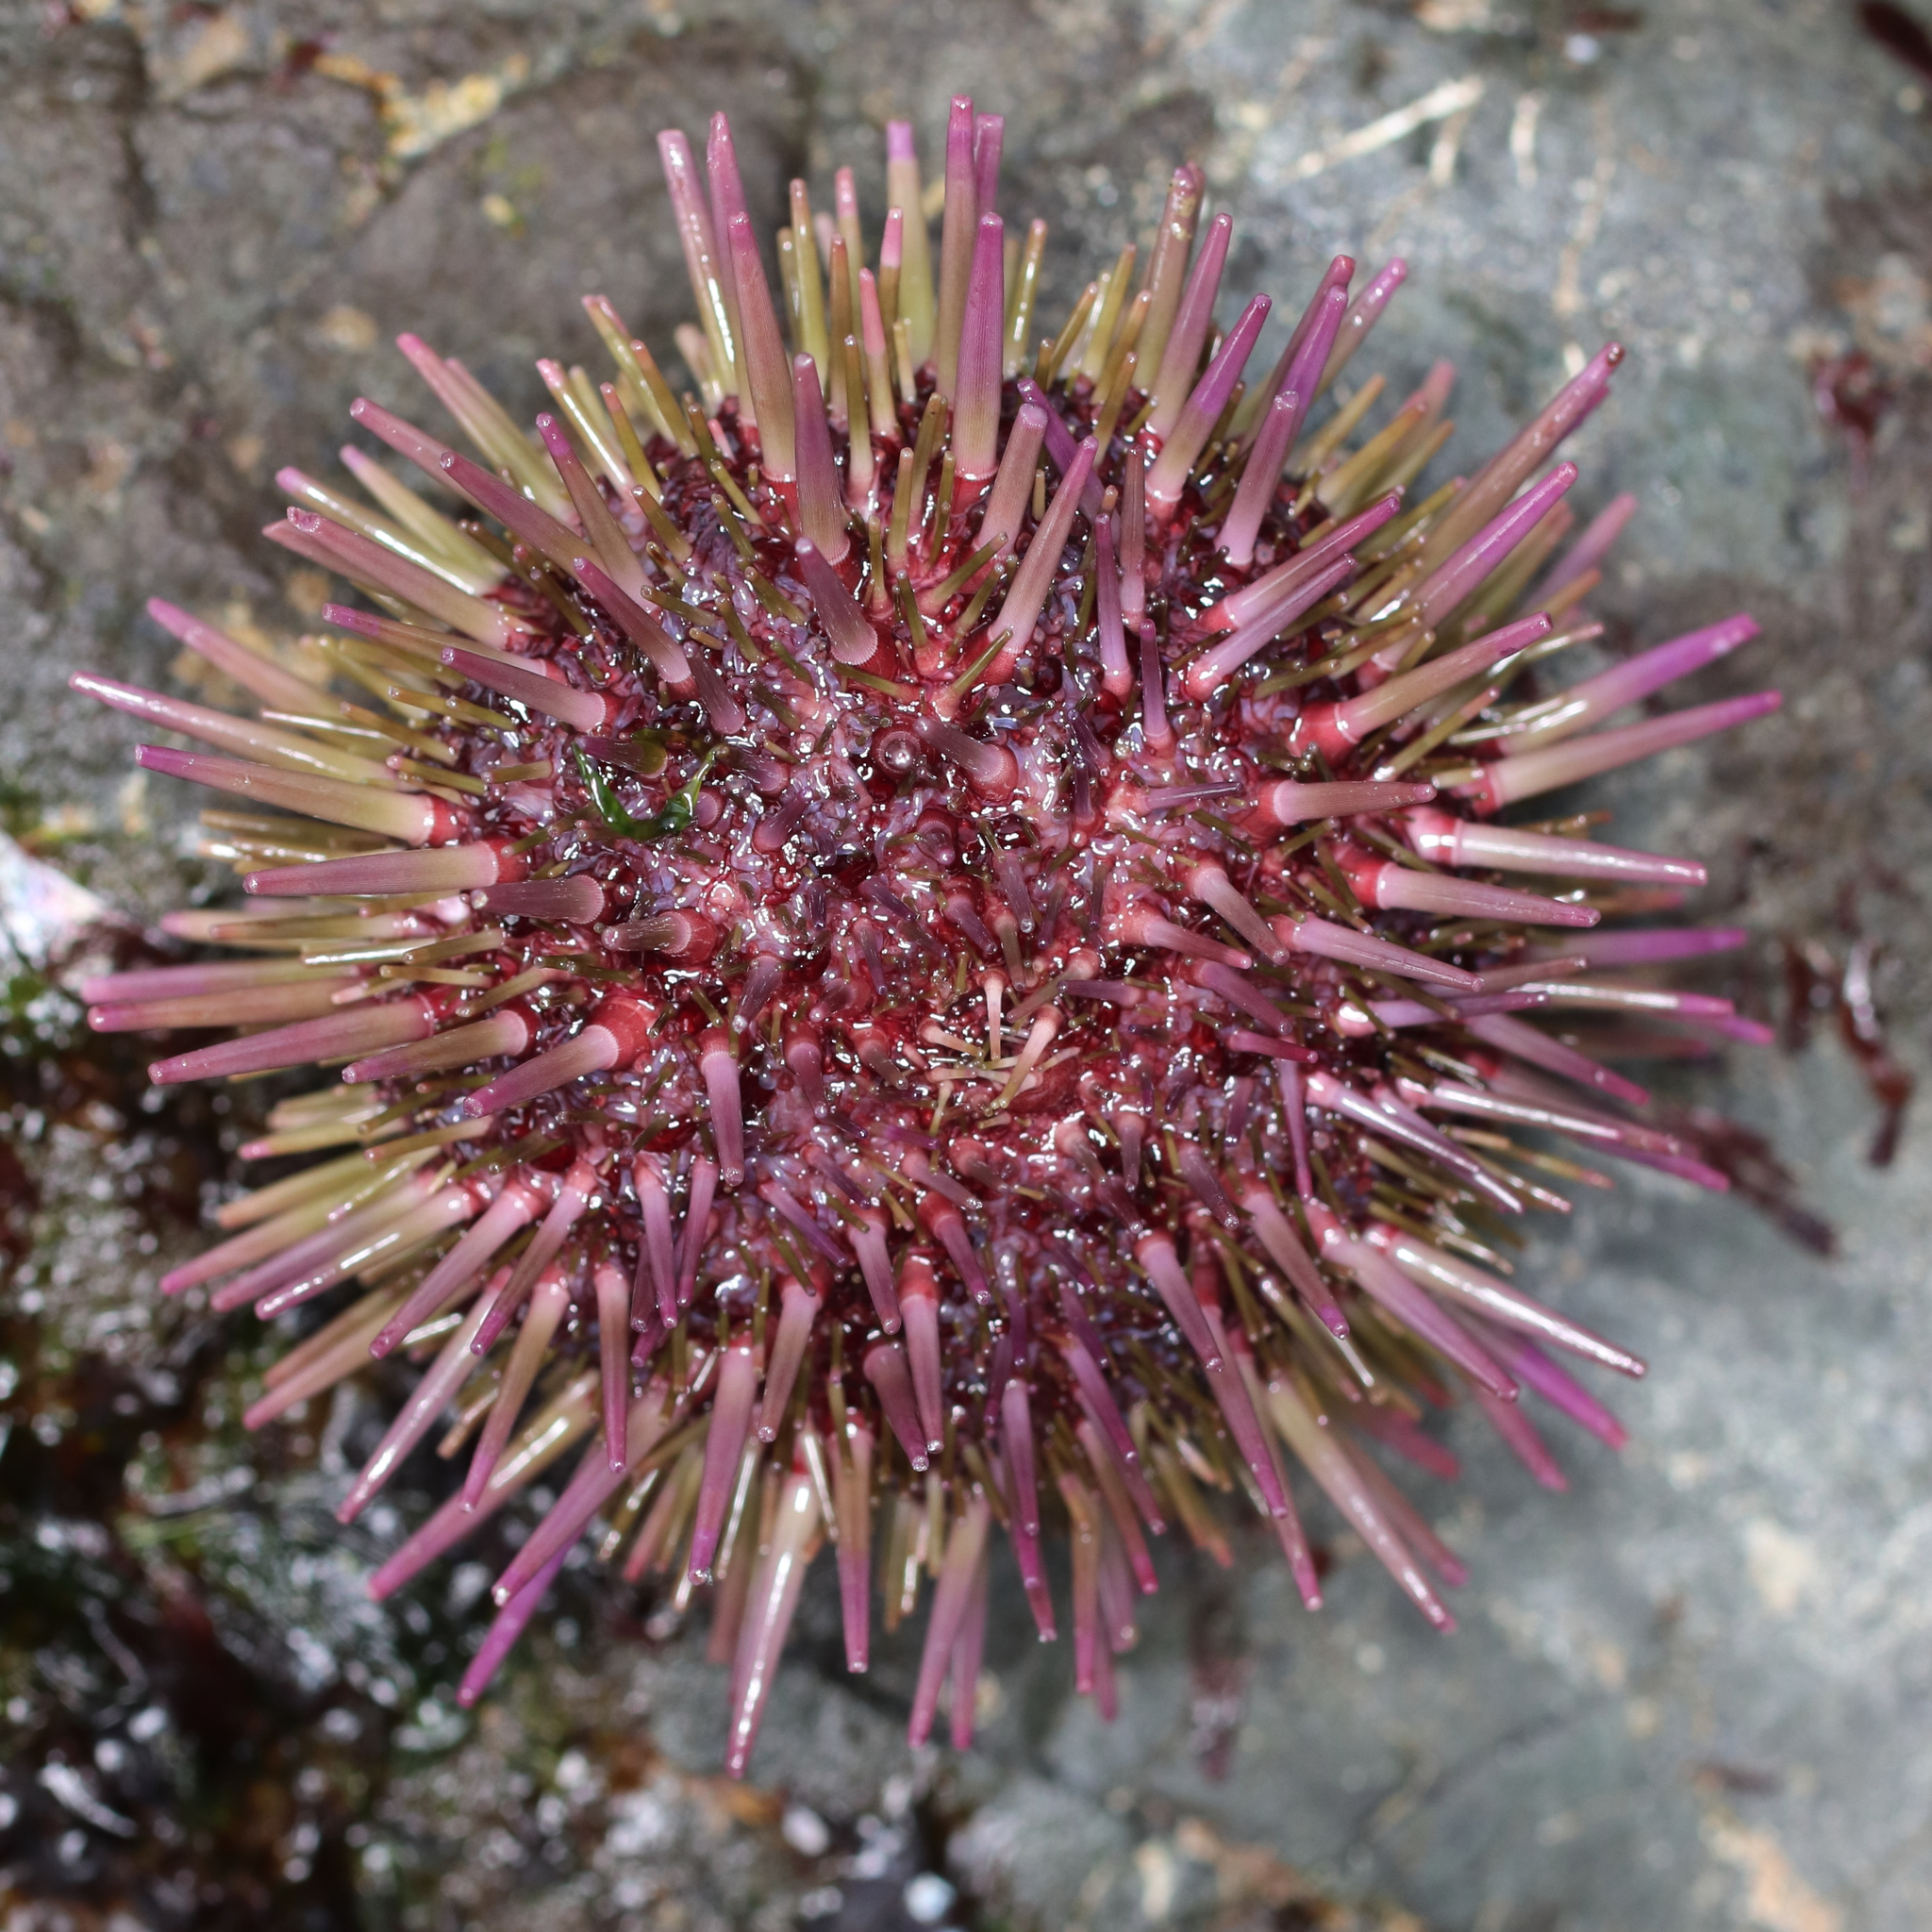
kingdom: Animalia
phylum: Echinodermata
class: Echinoidea
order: Camarodonta
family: Strongylocentrotidae
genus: Strongylocentrotus
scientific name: Strongylocentrotus purpuratus
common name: Purple sea urchin
